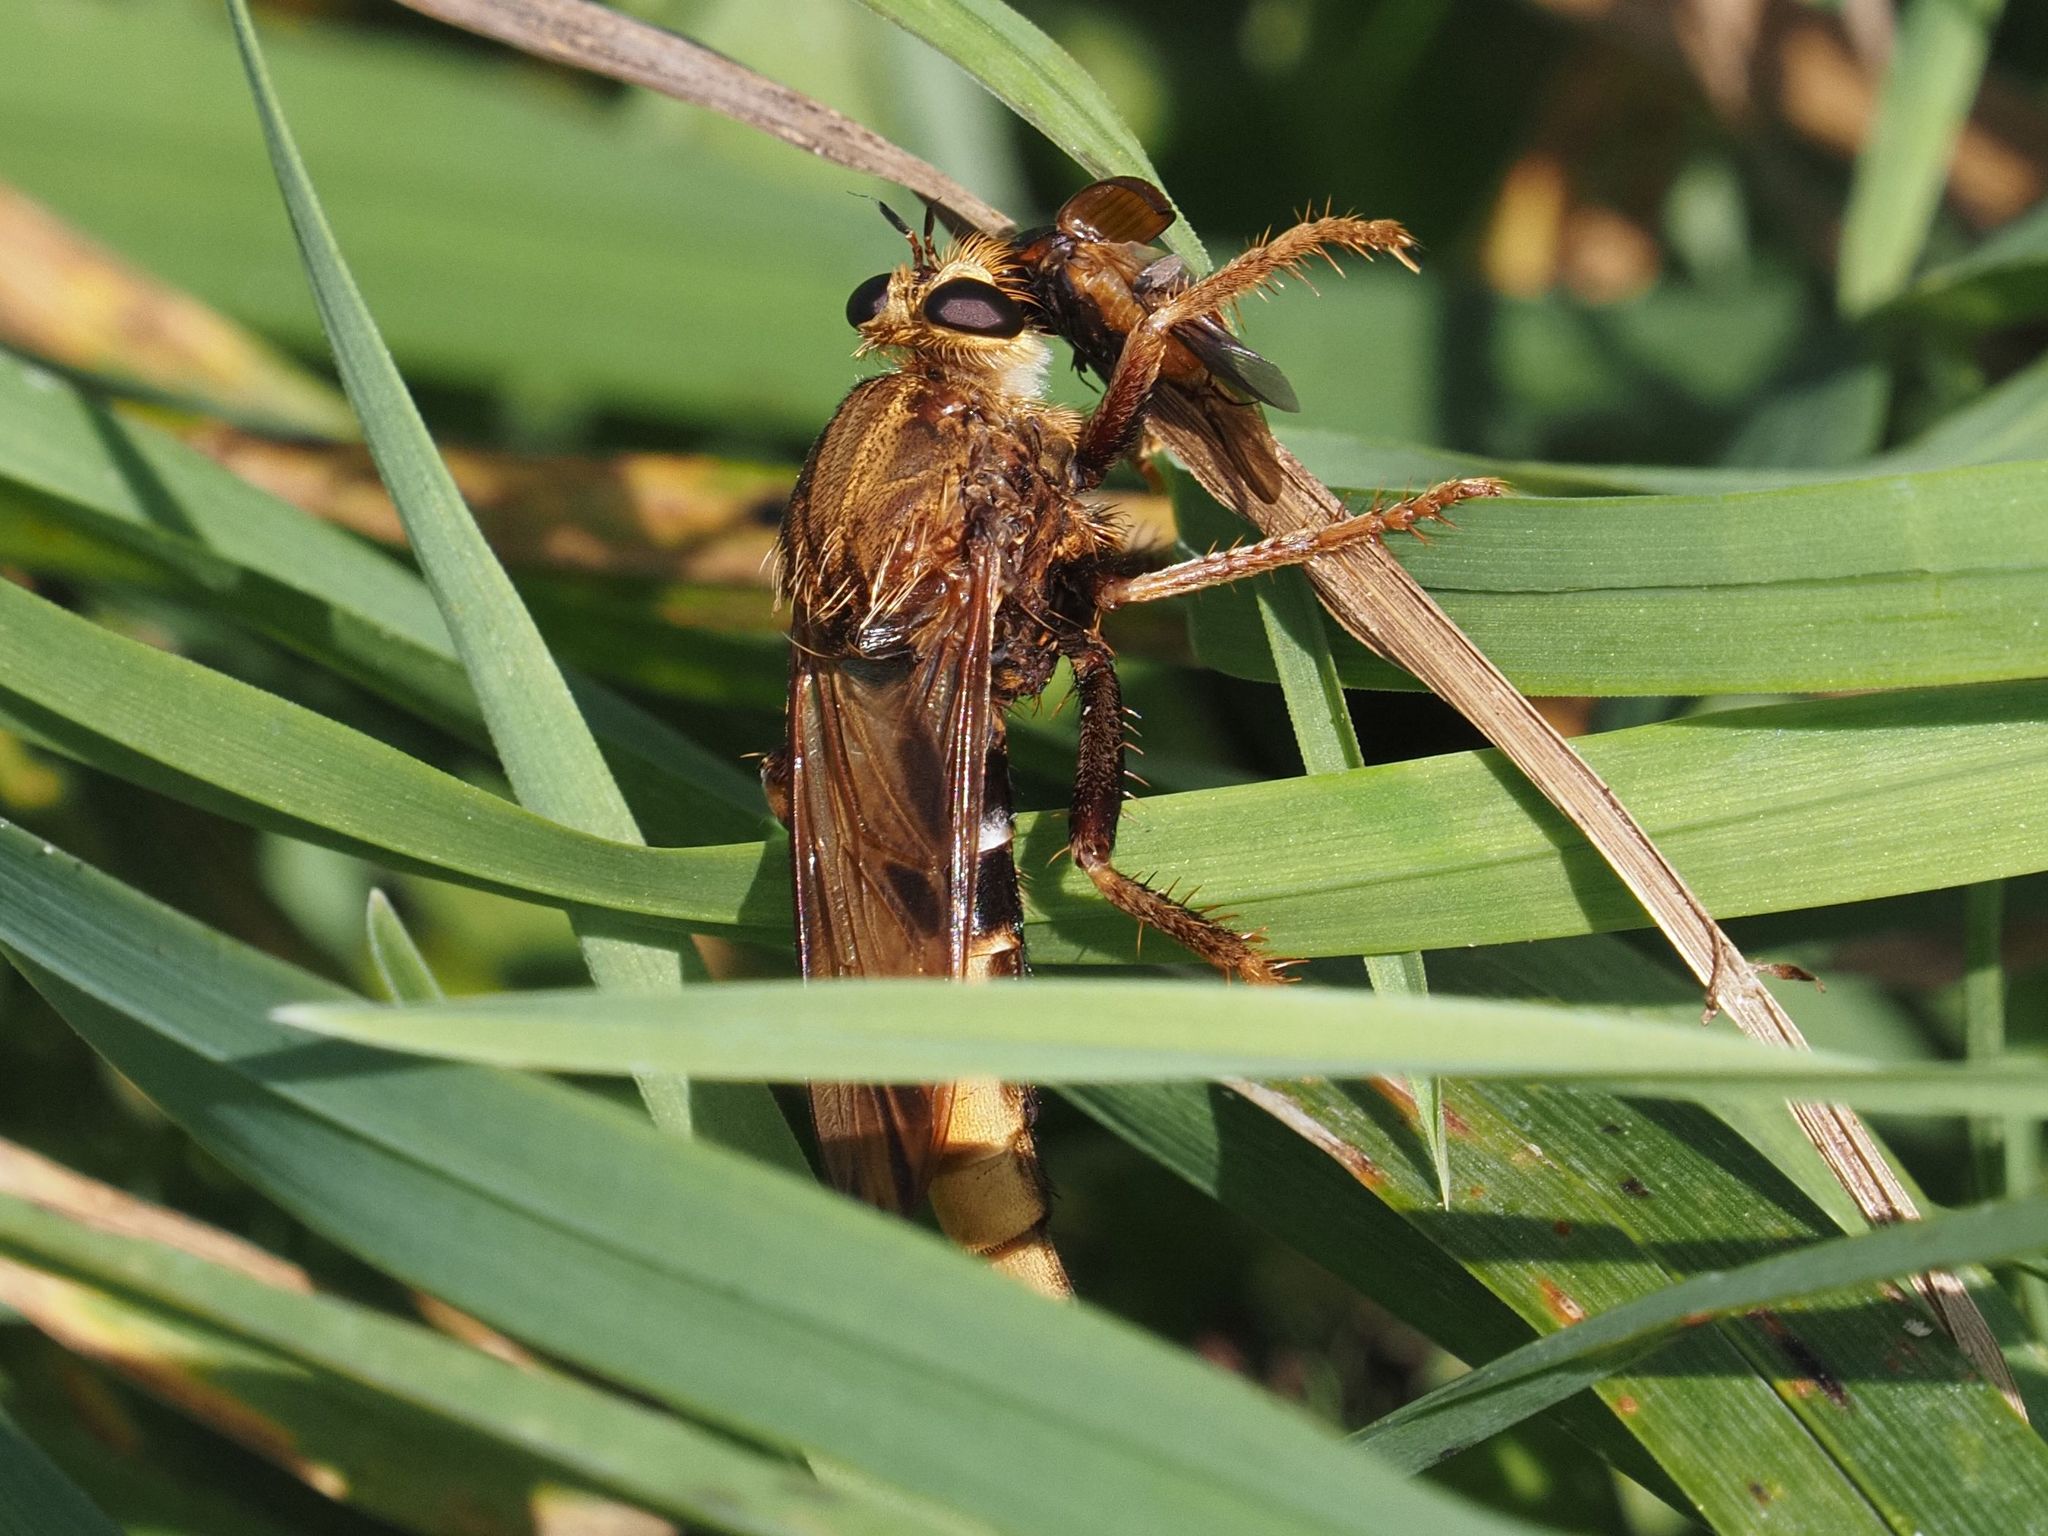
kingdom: Animalia
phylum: Arthropoda
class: Insecta
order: Diptera
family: Asilidae
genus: Asilus
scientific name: Asilus crabroniformis
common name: Hornet robberfly
